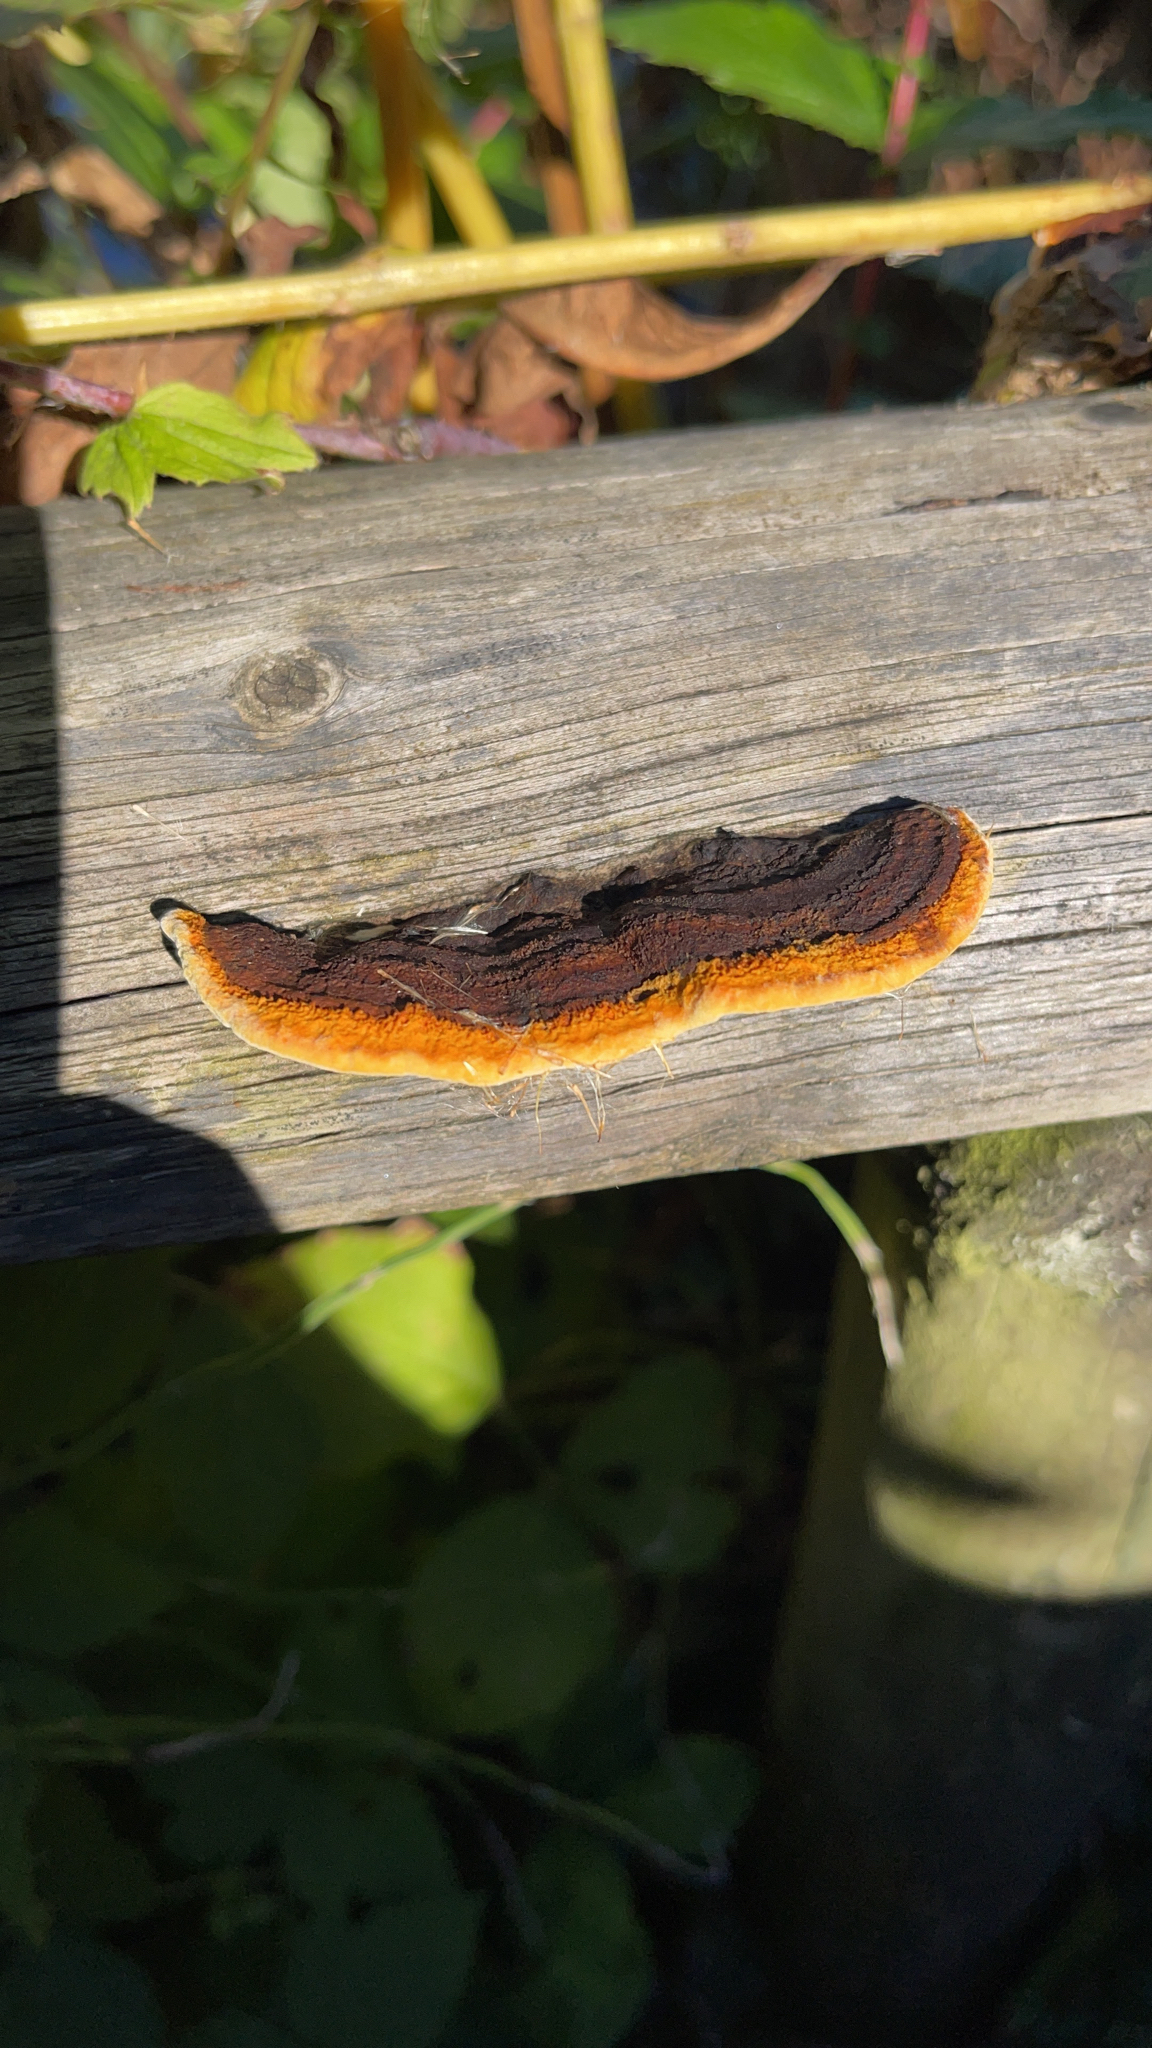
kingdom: Fungi
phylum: Basidiomycota
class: Agaricomycetes
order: Gloeophyllales
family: Gloeophyllaceae
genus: Gloeophyllum
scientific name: Gloeophyllum sepiarium
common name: Conifer mazegill
